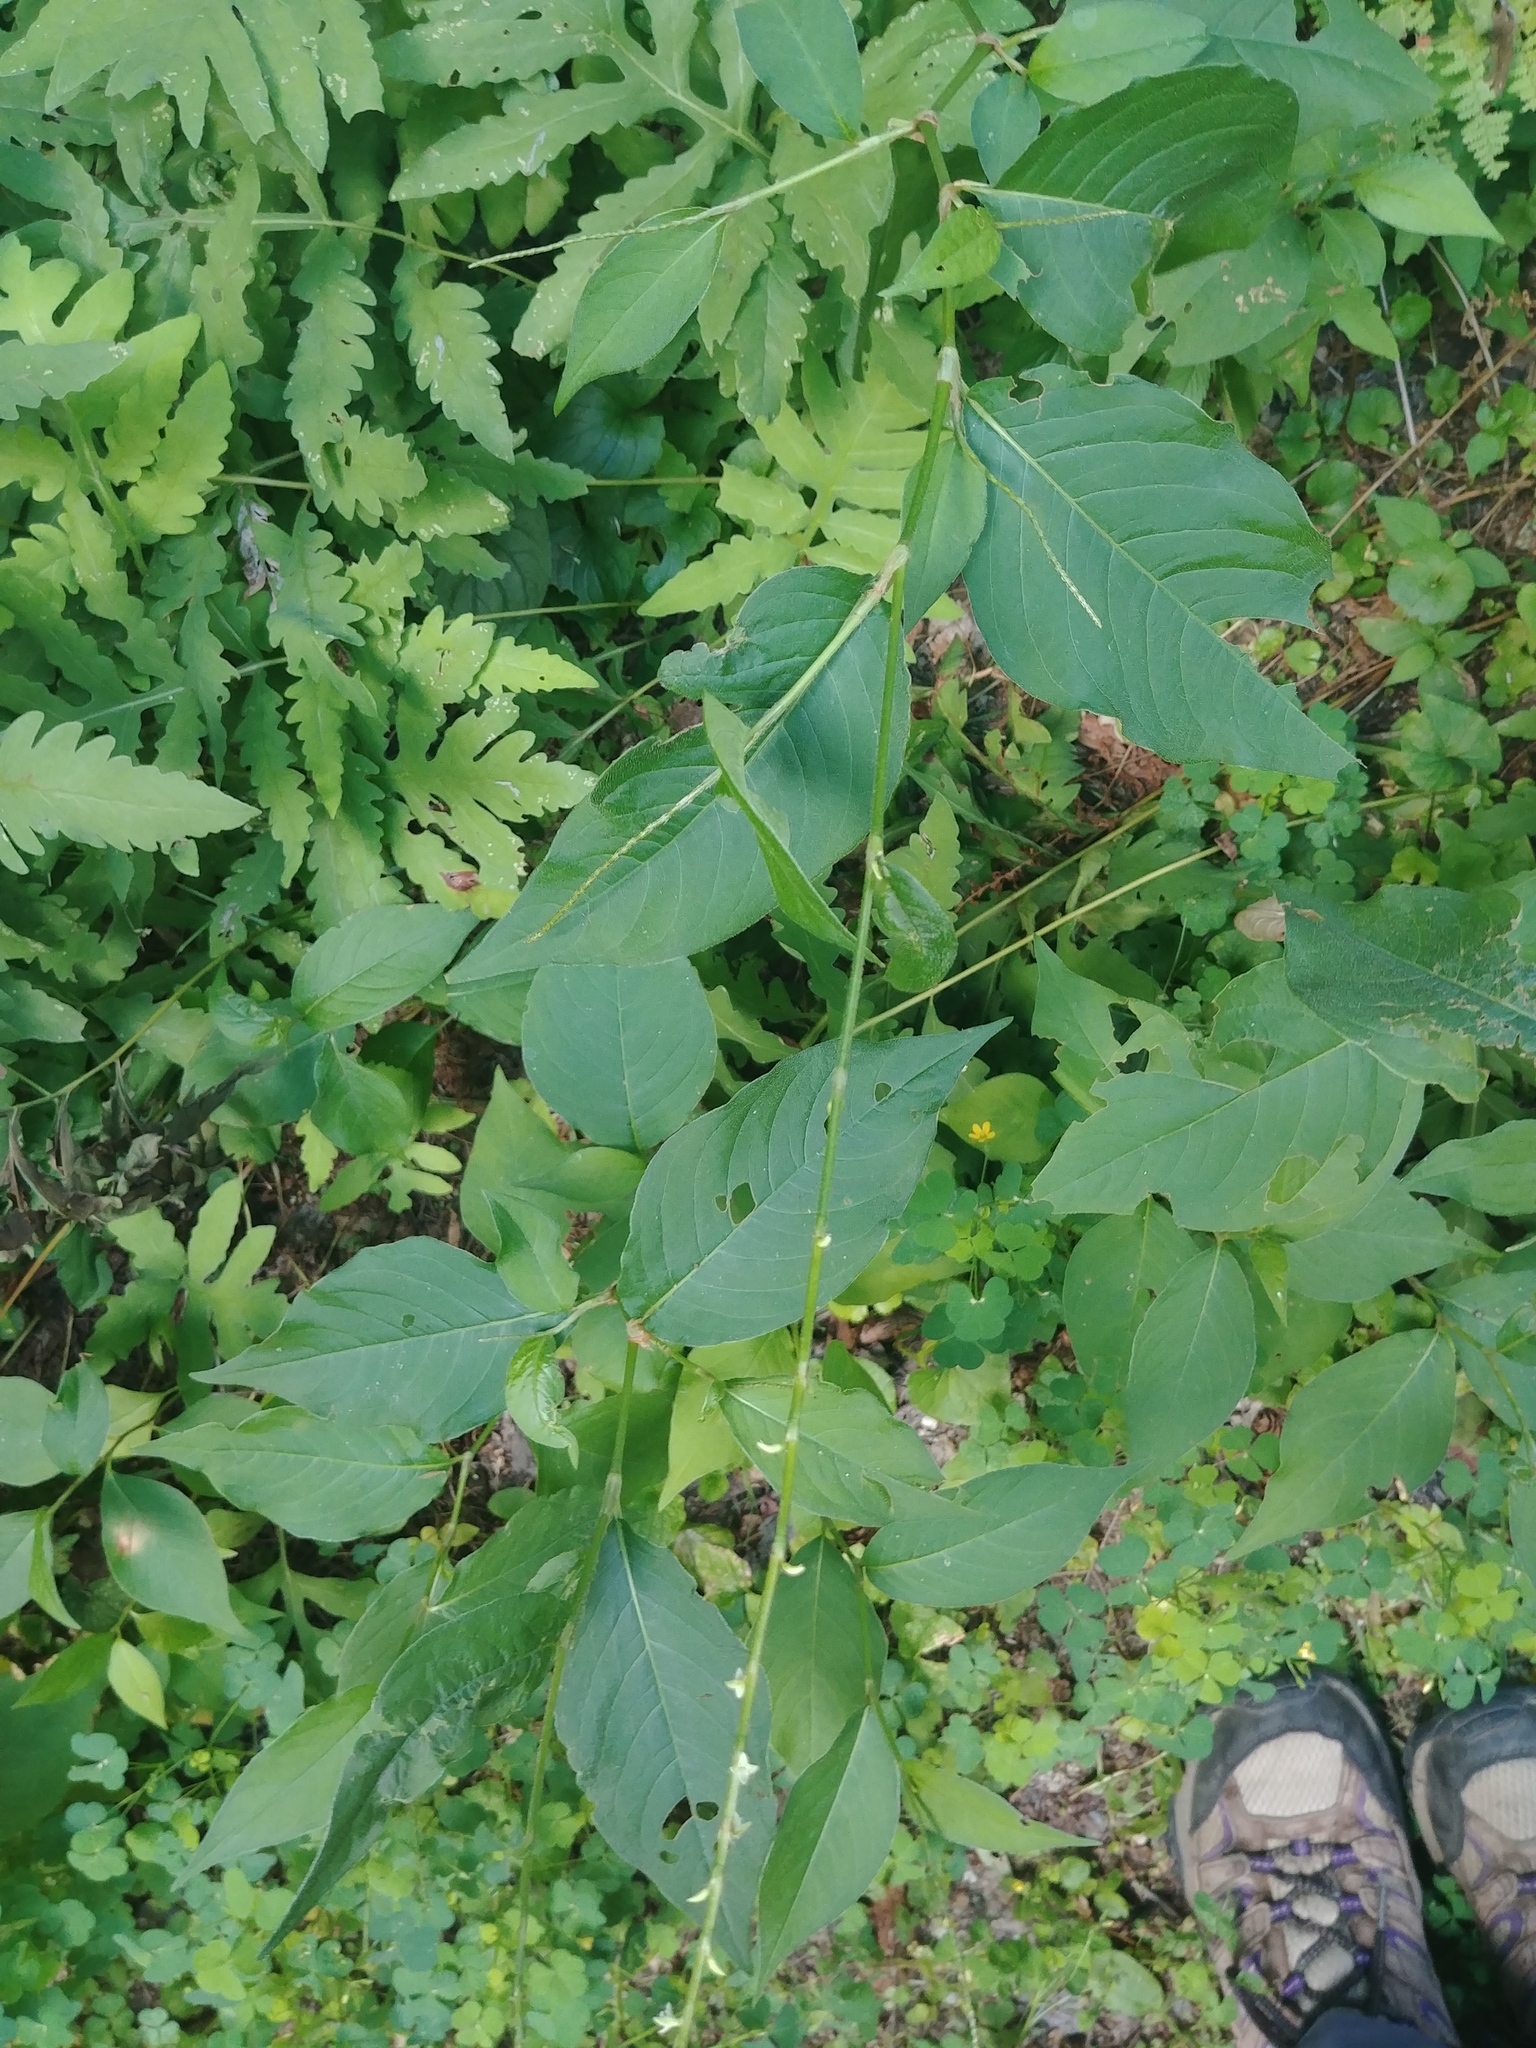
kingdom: Plantae
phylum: Tracheophyta
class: Magnoliopsida
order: Caryophyllales
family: Polygonaceae
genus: Persicaria
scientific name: Persicaria virginiana
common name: Jumpseed
